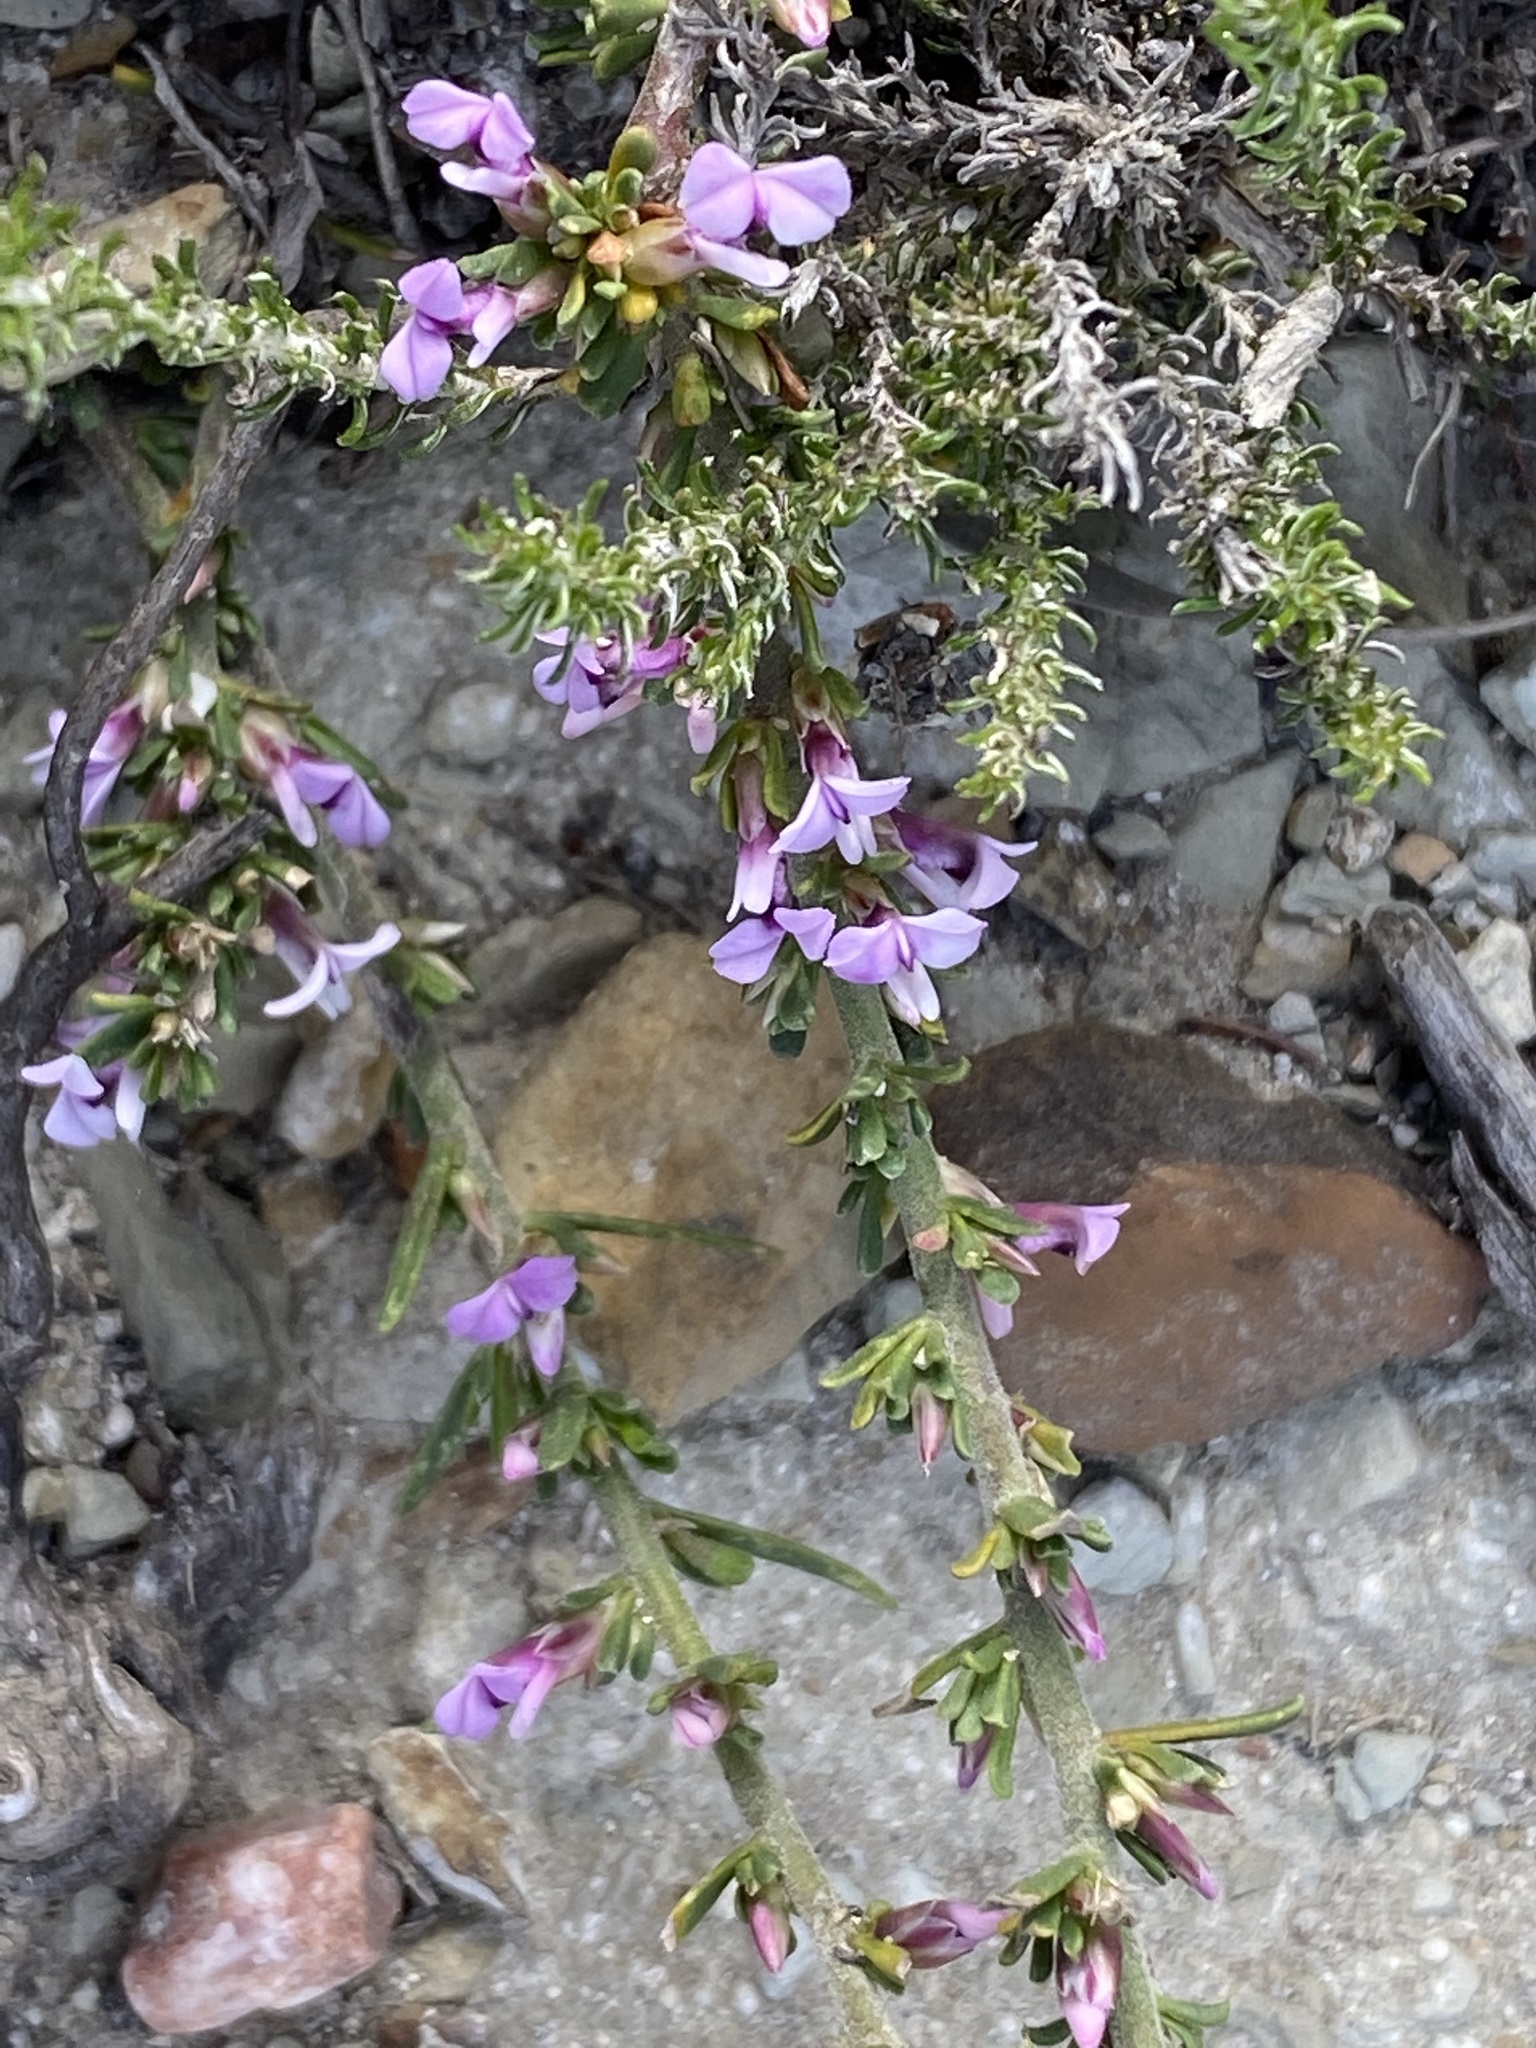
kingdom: Plantae
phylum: Tracheophyta
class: Magnoliopsida
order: Fabales
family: Polygalaceae
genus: Muraltia
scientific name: Muraltia barkerae
